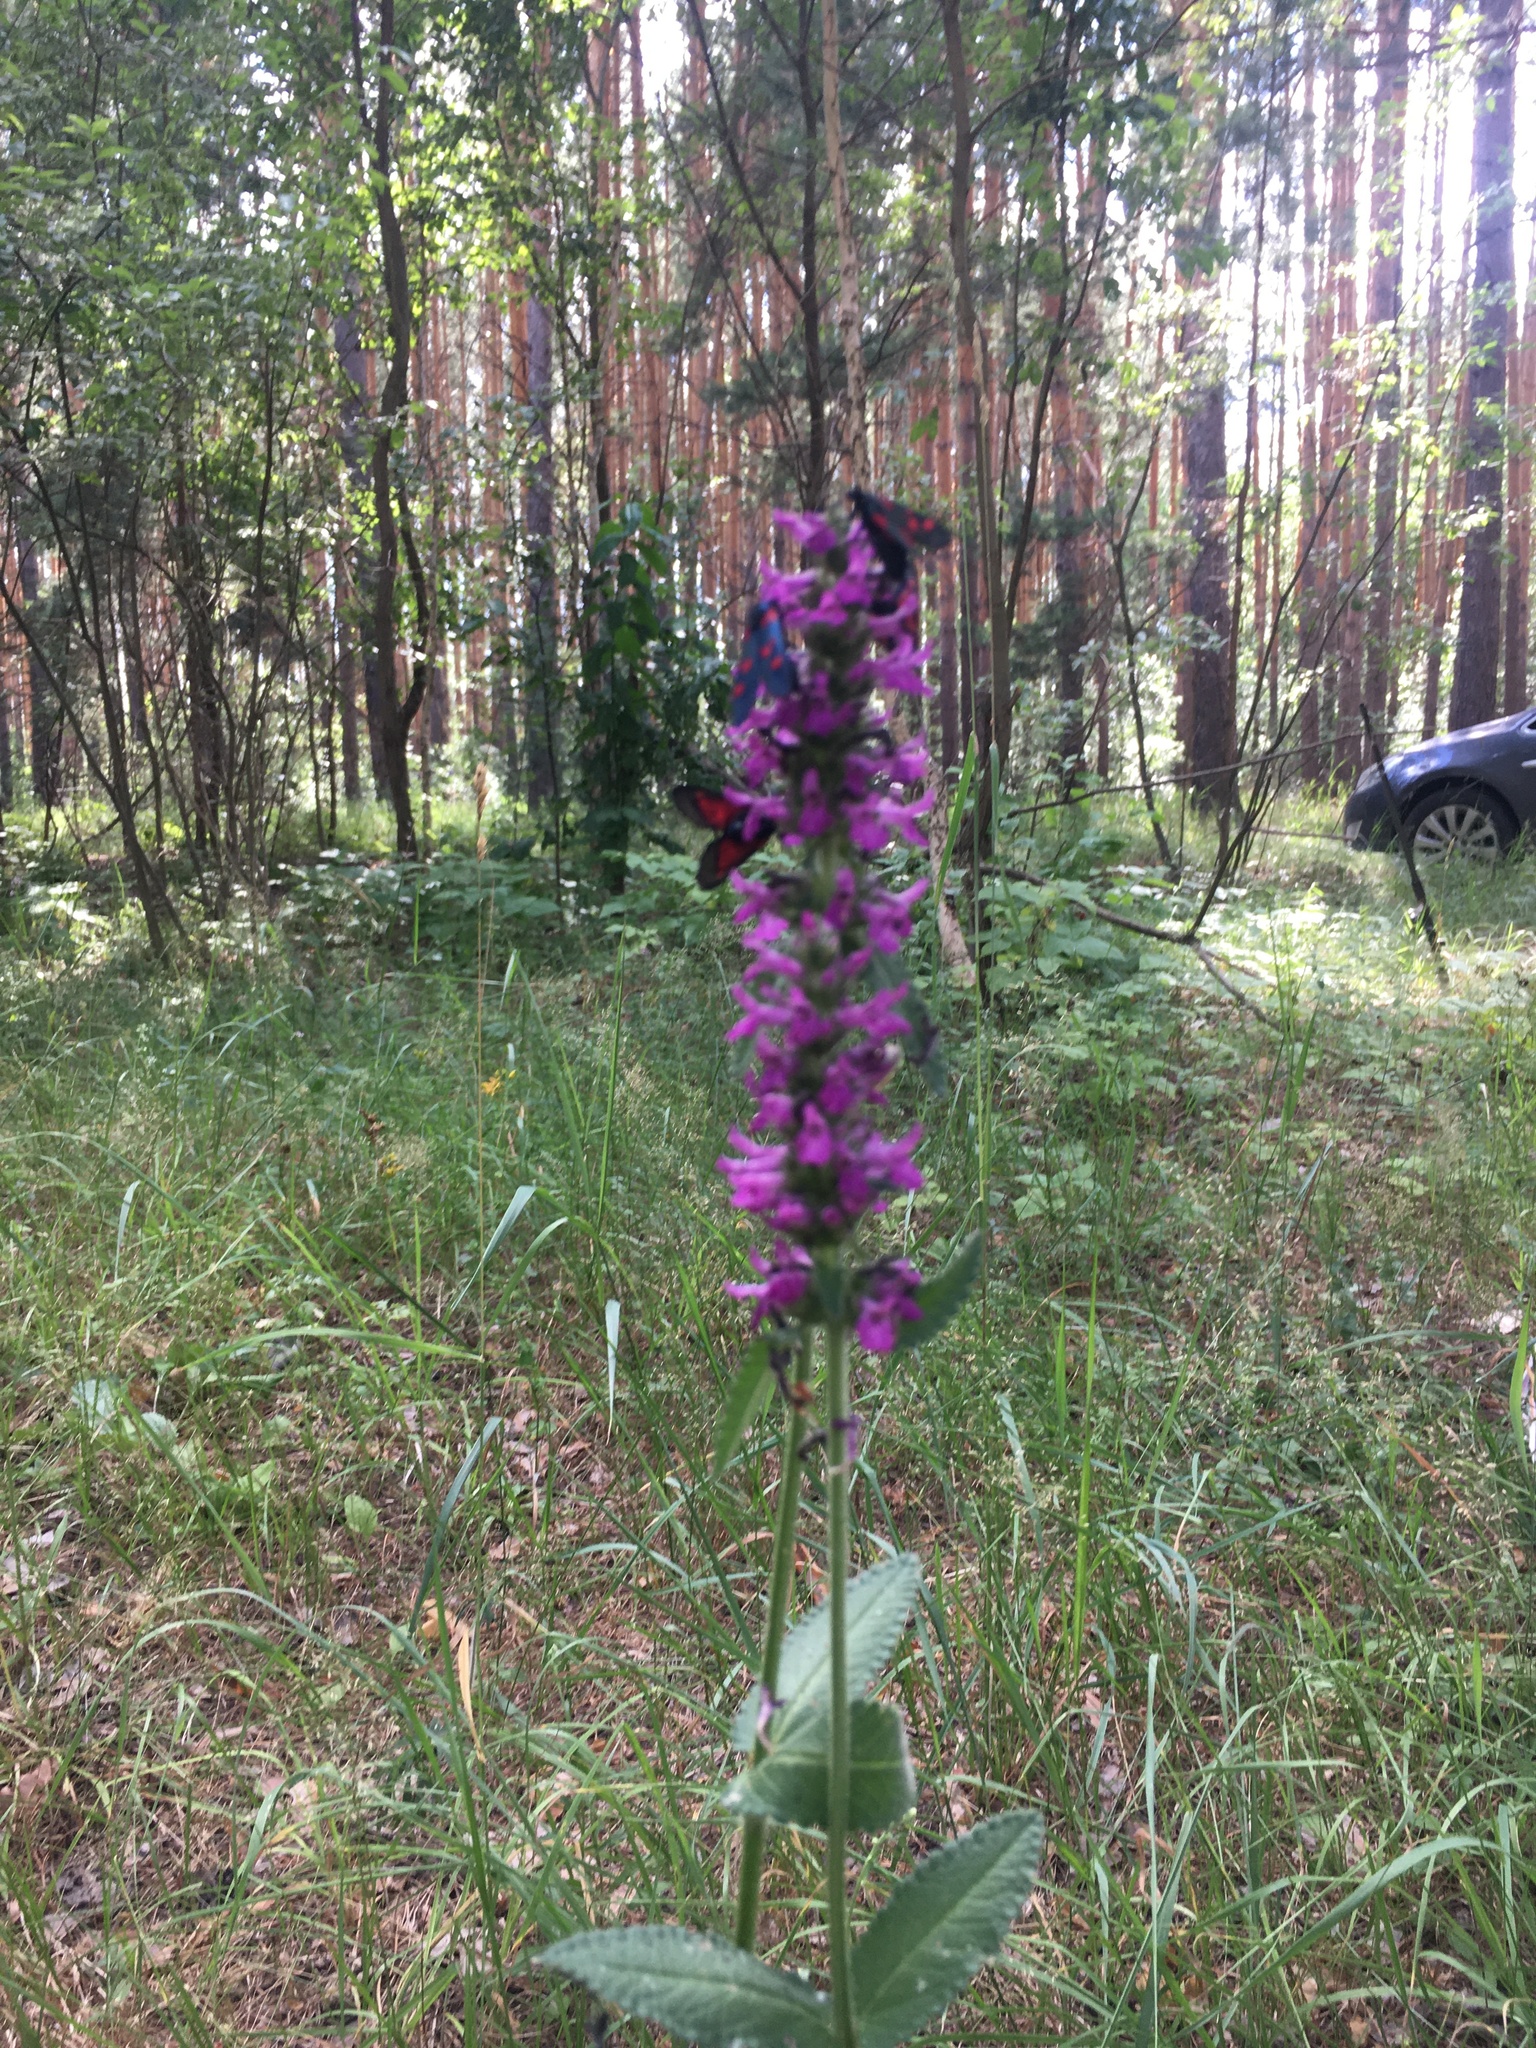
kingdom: Plantae
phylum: Tracheophyta
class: Magnoliopsida
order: Lamiales
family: Lamiaceae
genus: Betonica
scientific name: Betonica officinalis
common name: Bishop's-wort
